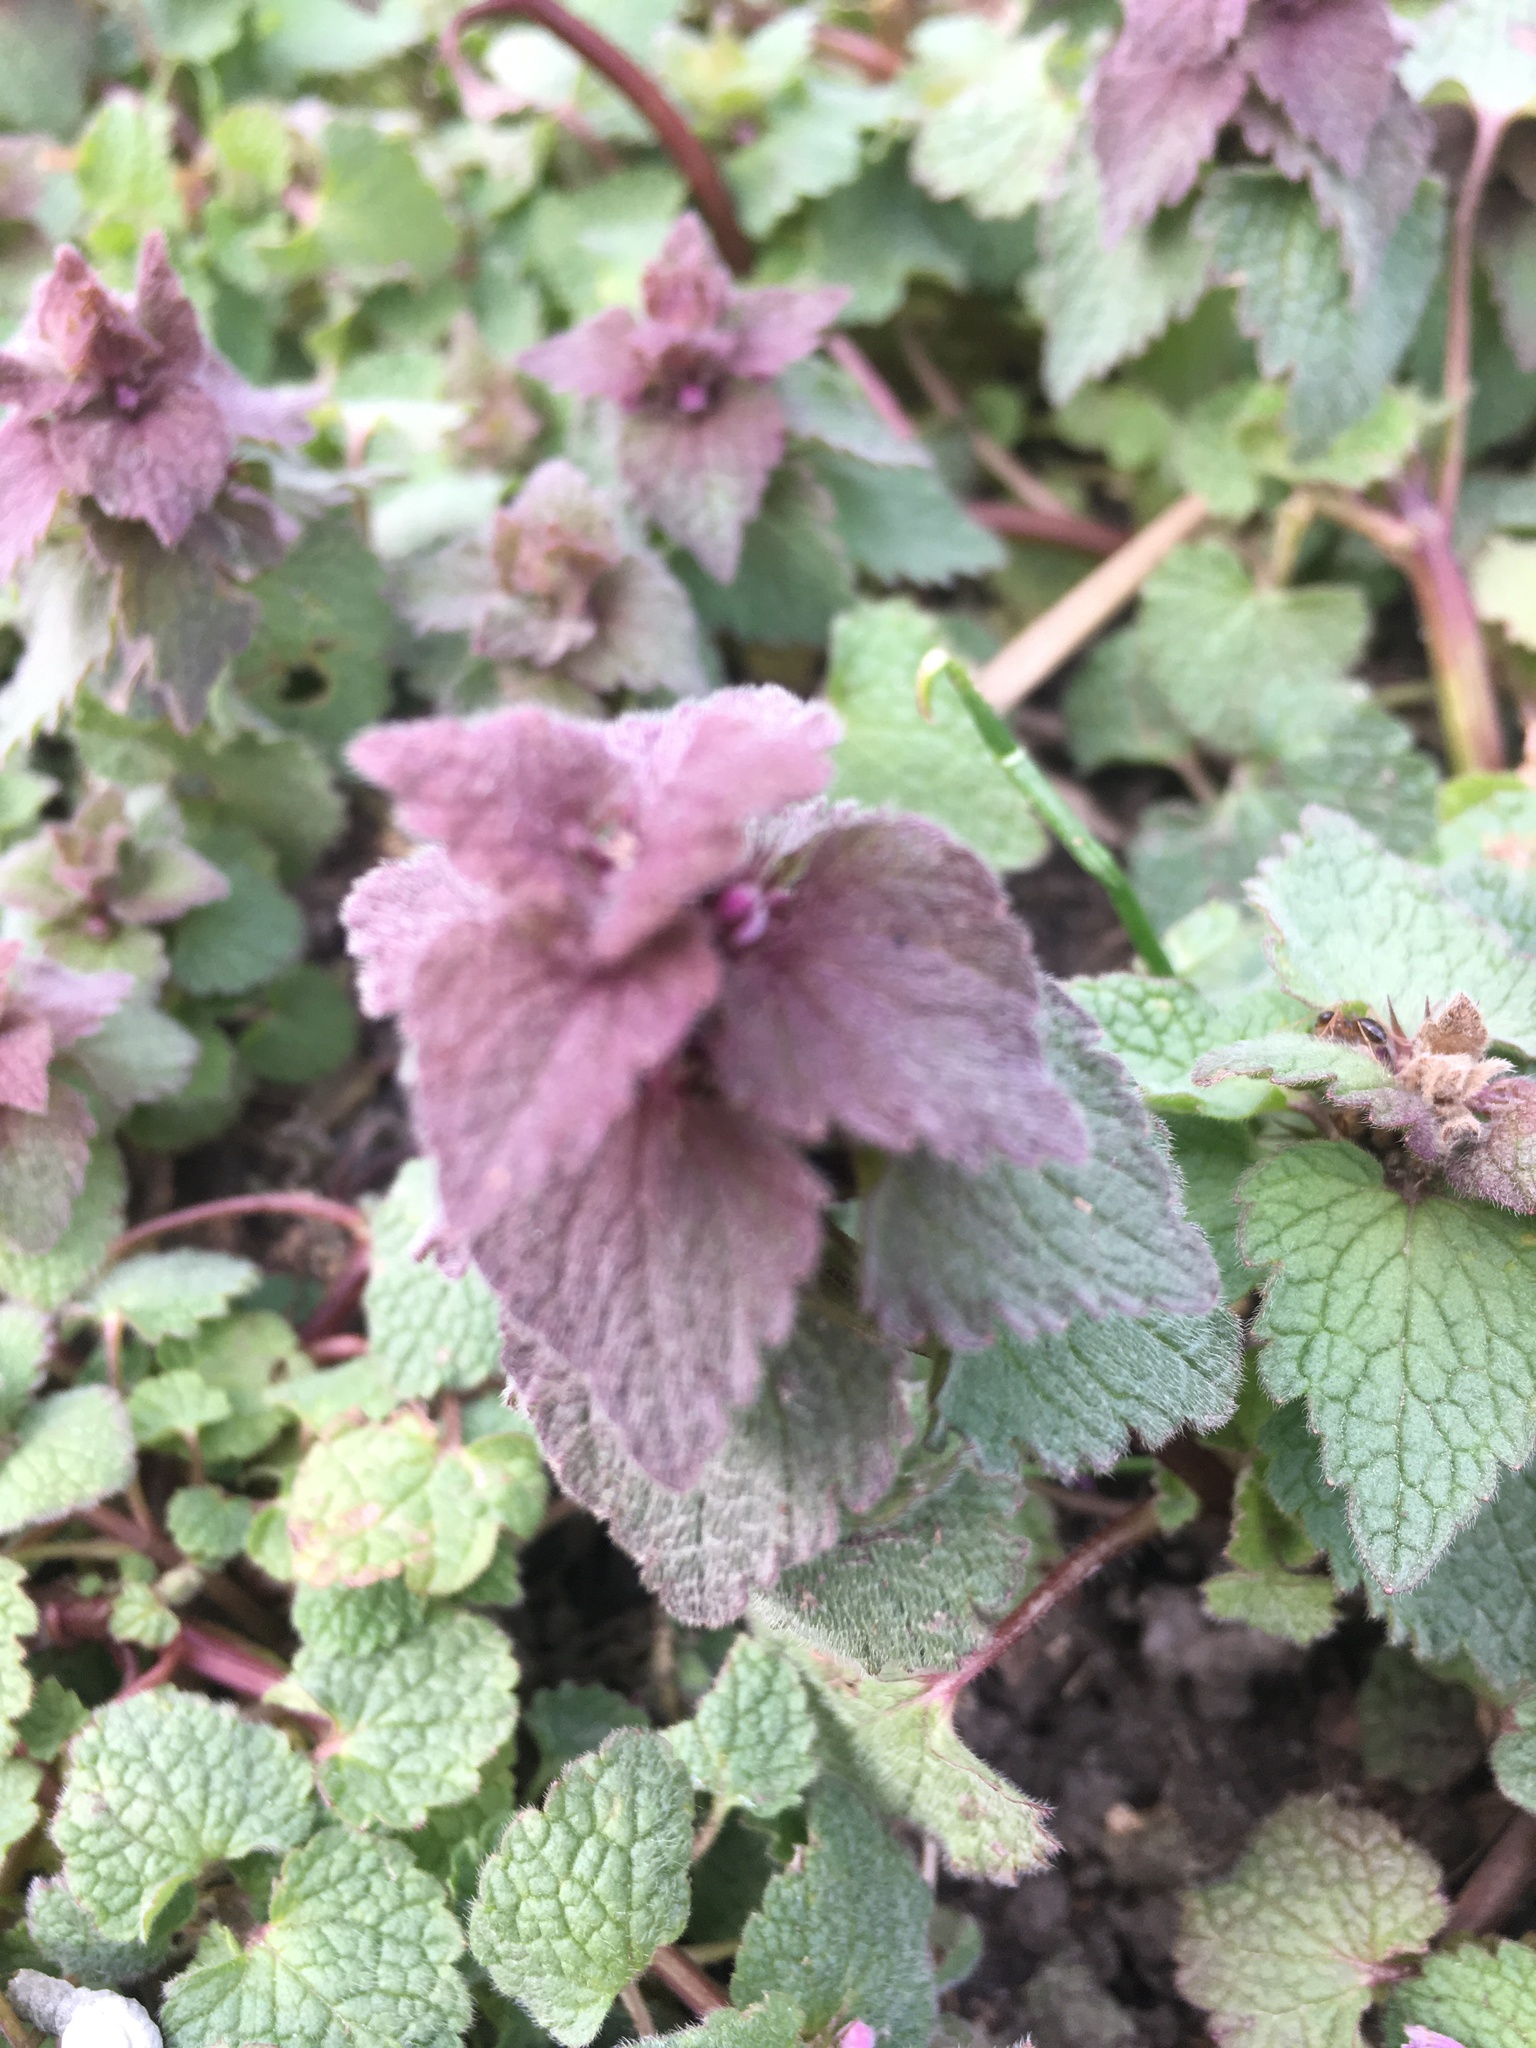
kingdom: Plantae
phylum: Tracheophyta
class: Magnoliopsida
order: Lamiales
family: Lamiaceae
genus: Lamium
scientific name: Lamium purpureum
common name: Red dead-nettle
